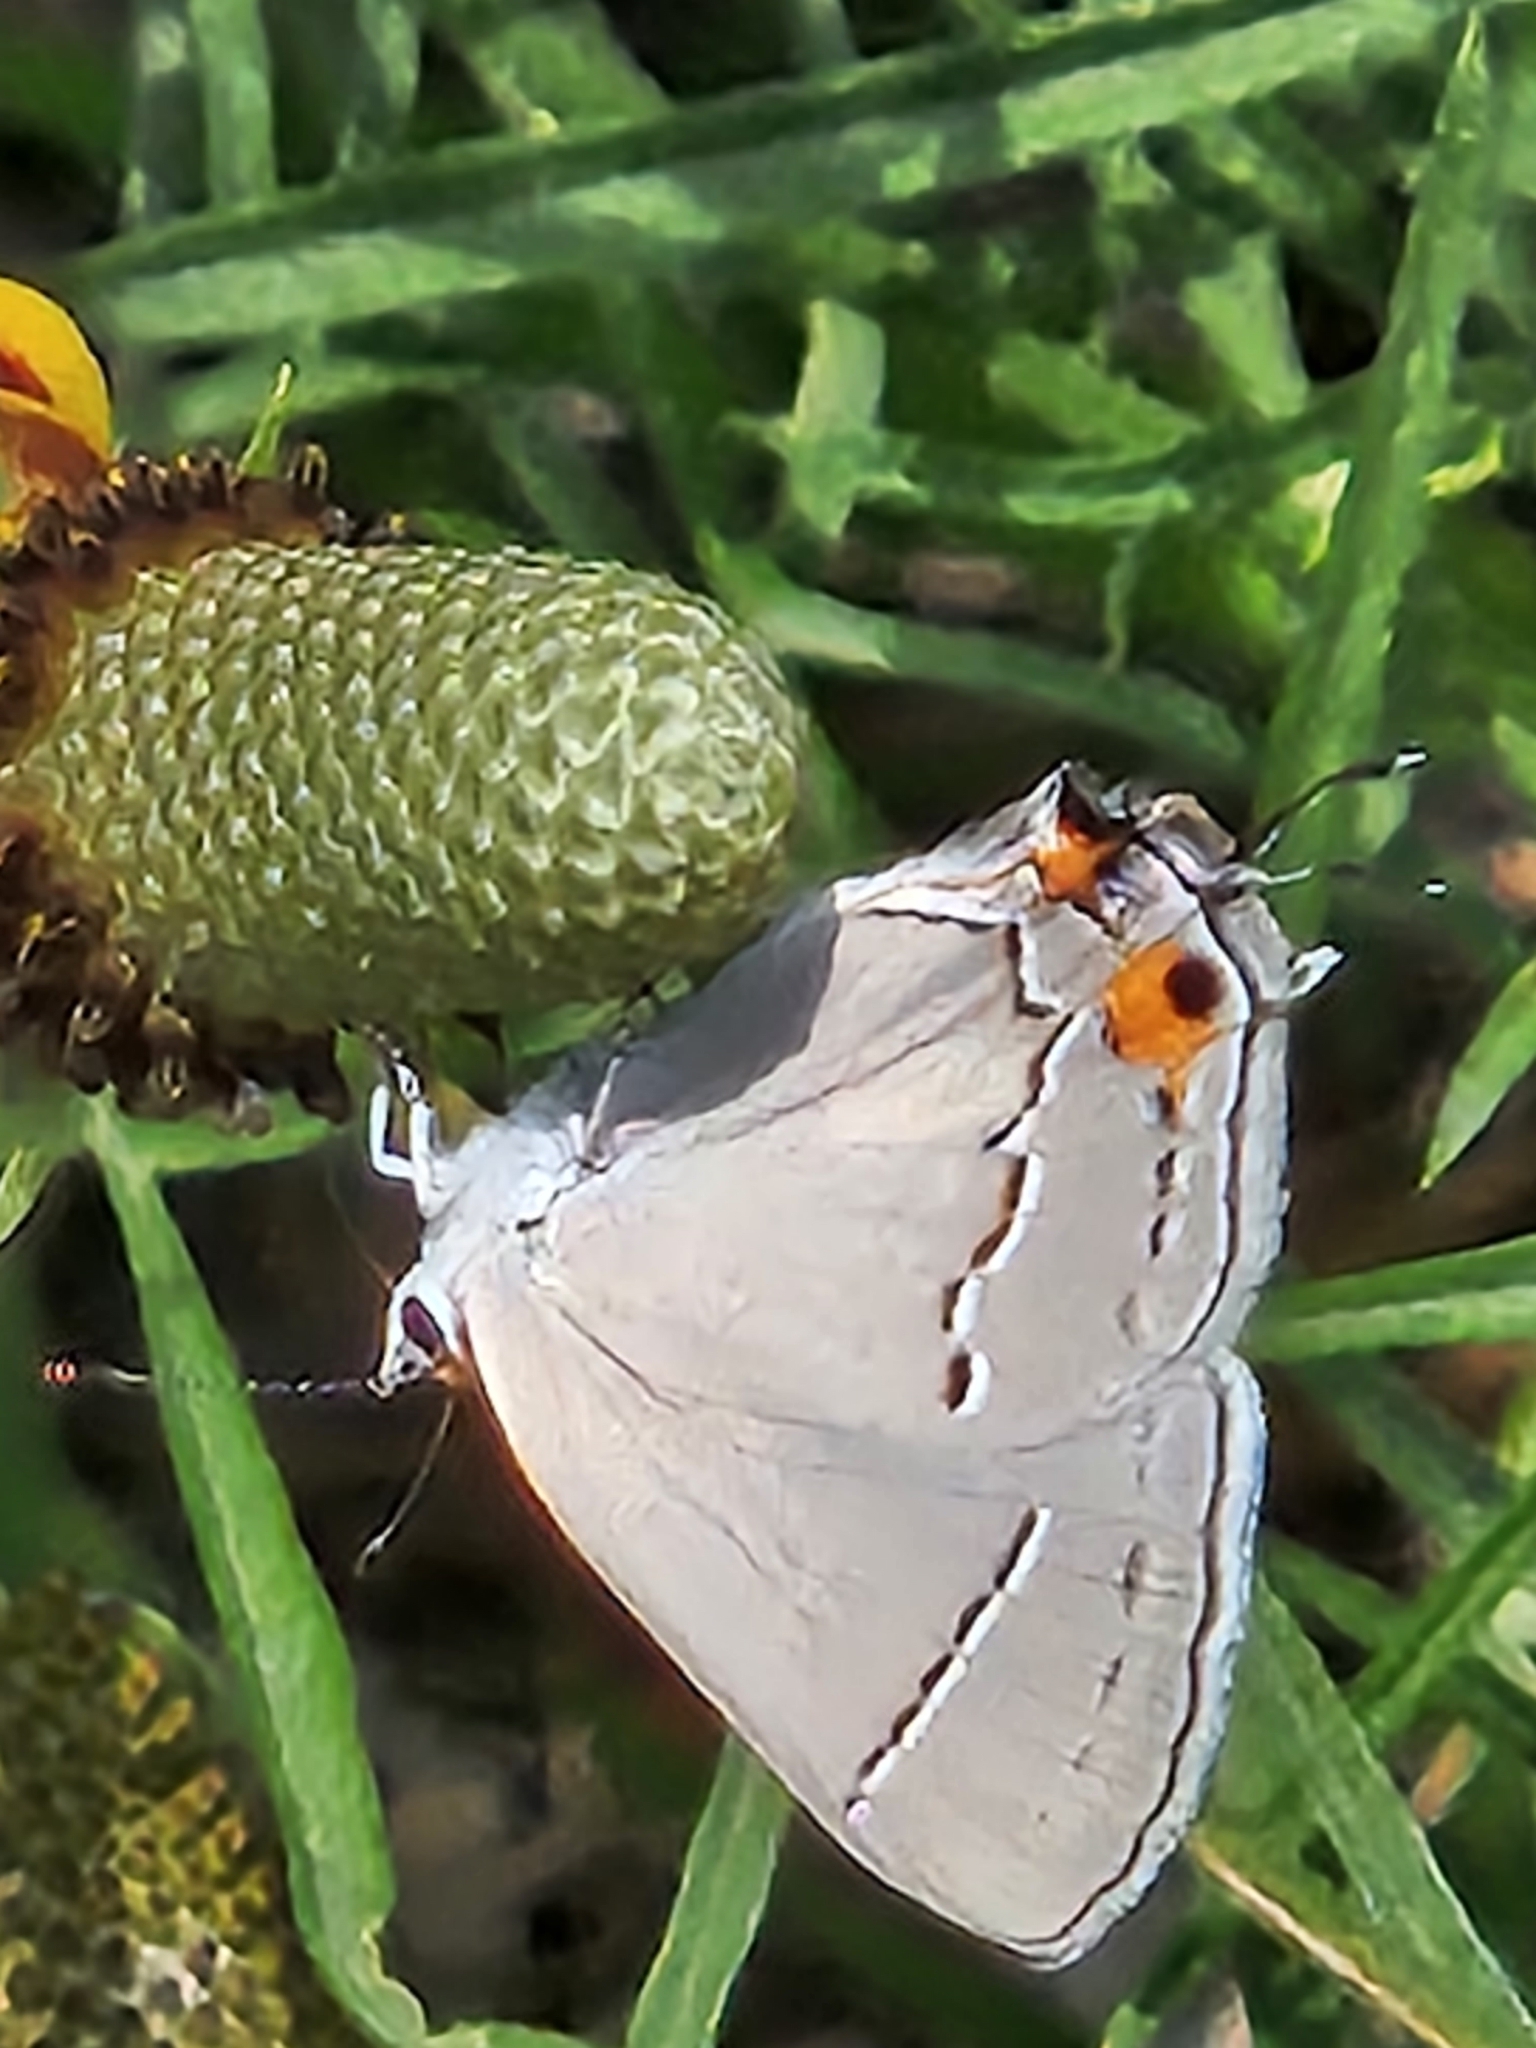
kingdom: Animalia
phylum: Arthropoda
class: Insecta
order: Lepidoptera
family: Lycaenidae
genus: Strymon
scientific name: Strymon melinus
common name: Gray hairstreak
